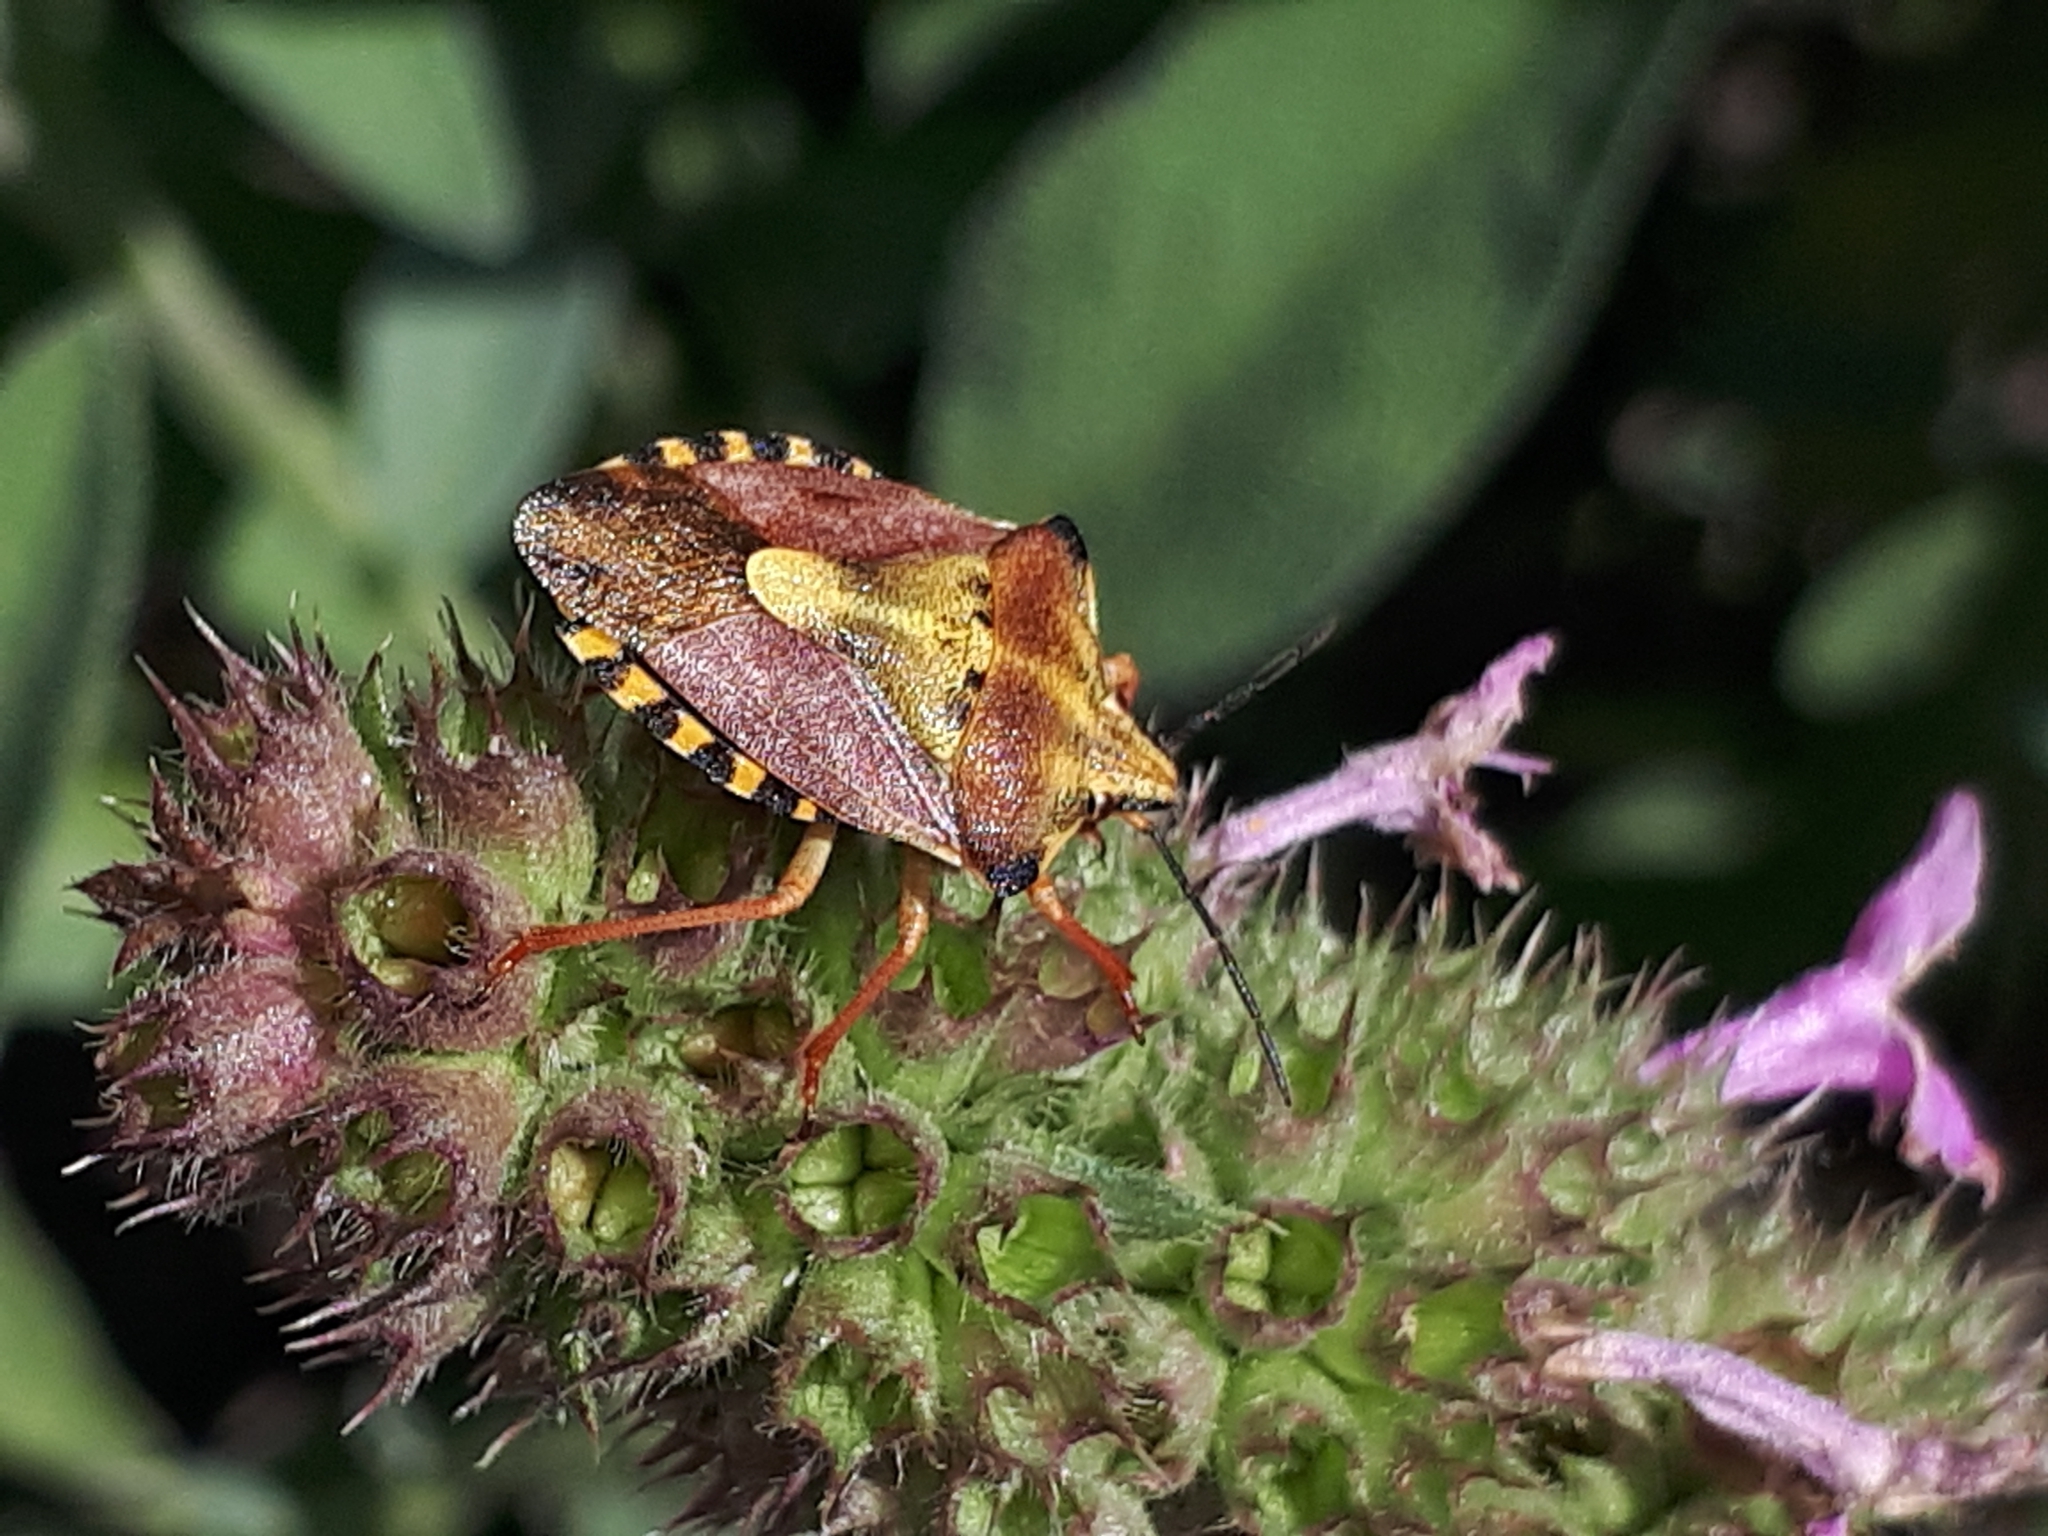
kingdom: Animalia
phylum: Arthropoda
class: Insecta
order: Hemiptera
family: Pentatomidae
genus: Carpocoris
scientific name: Carpocoris purpureipennis
